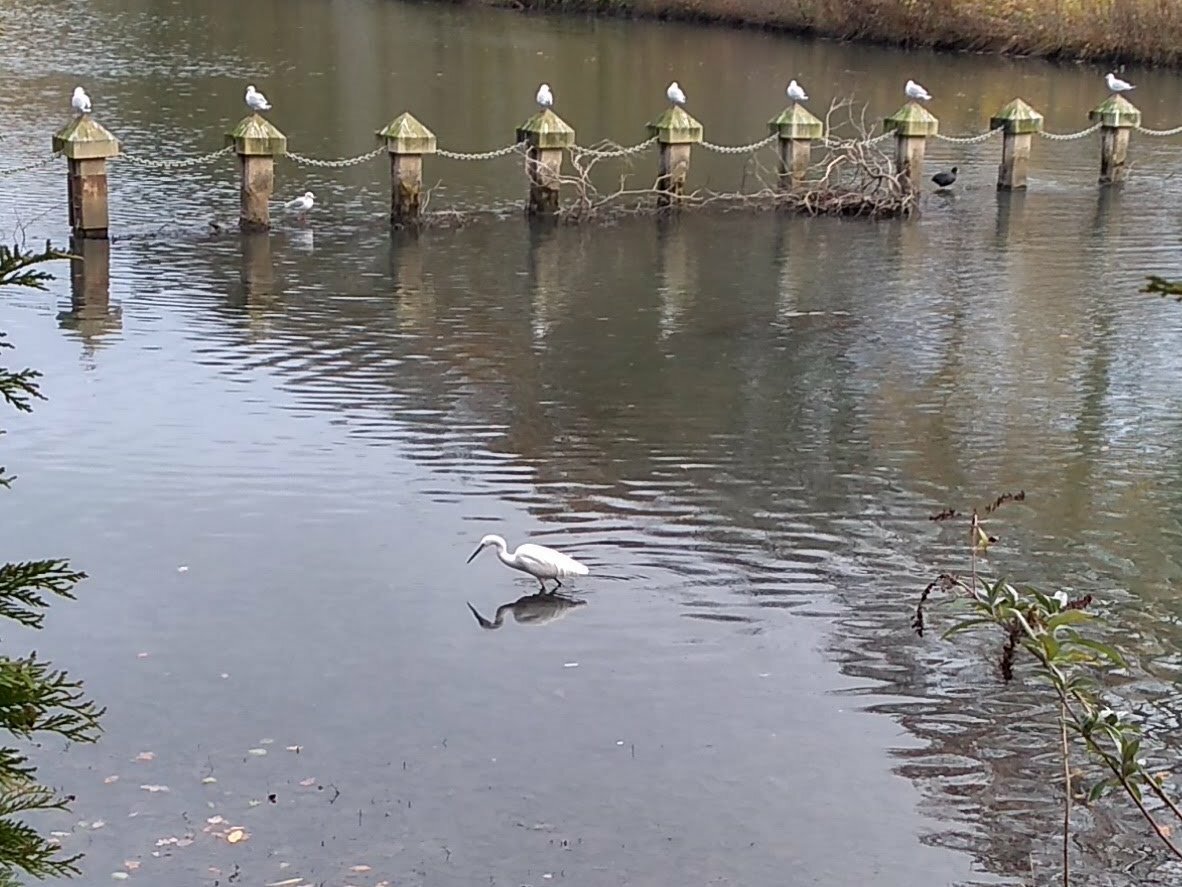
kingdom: Animalia
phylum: Chordata
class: Aves
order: Pelecaniformes
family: Ardeidae
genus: Egretta
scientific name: Egretta garzetta
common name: Little egret
